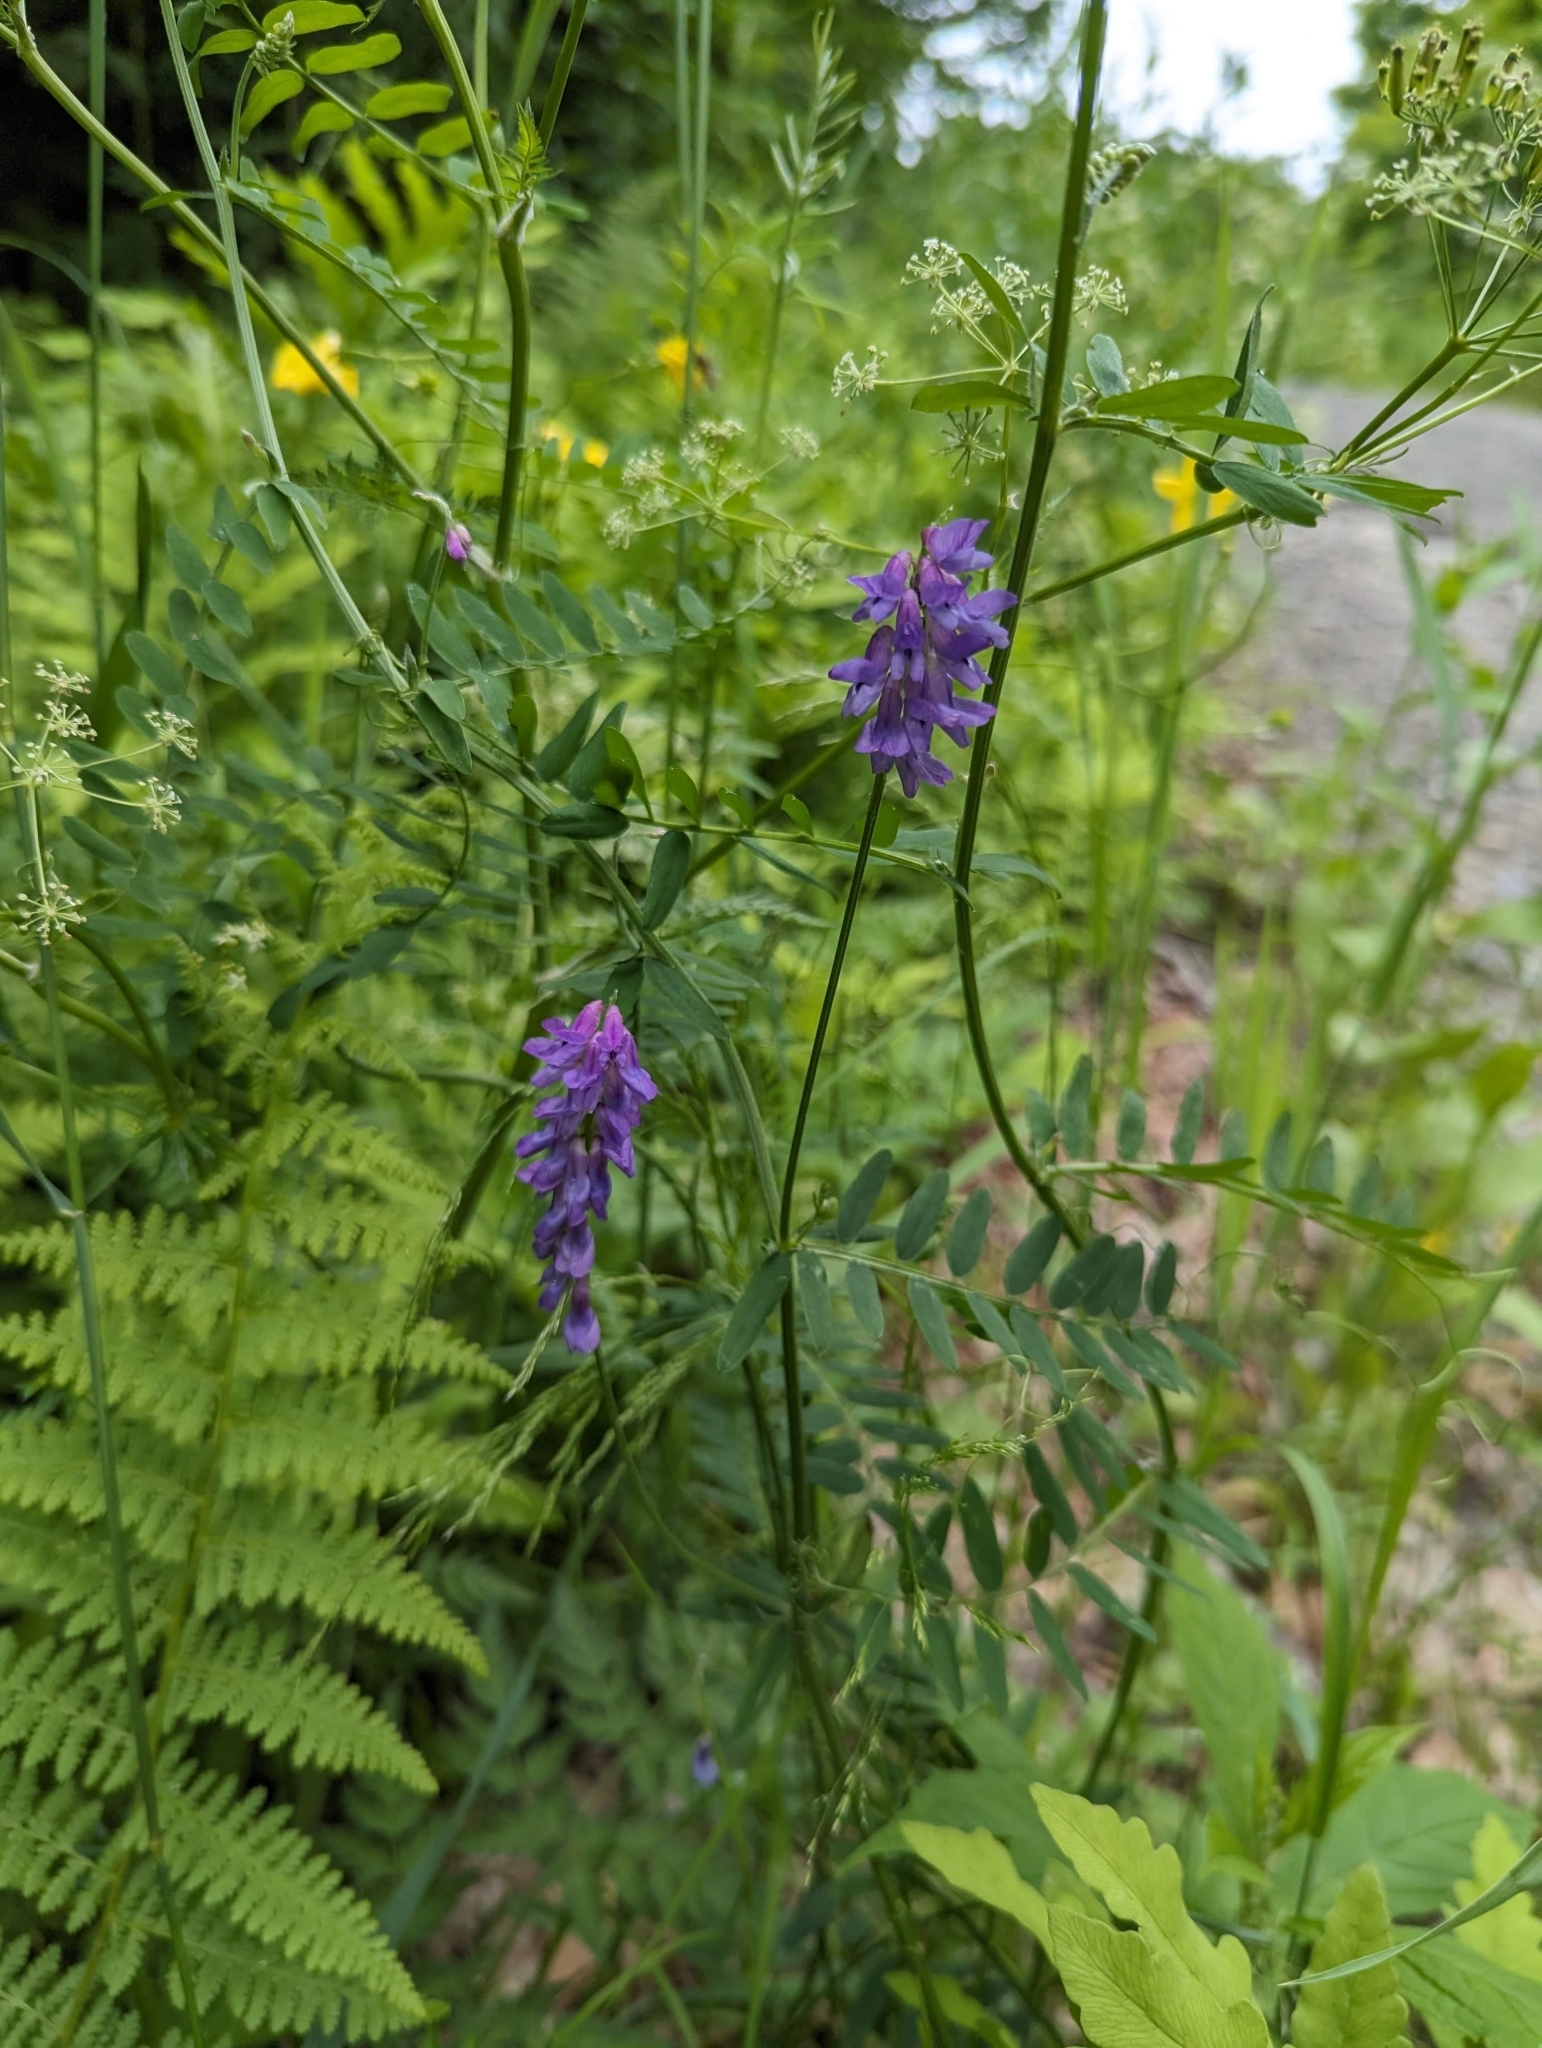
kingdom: Plantae
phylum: Tracheophyta
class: Magnoliopsida
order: Fabales
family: Fabaceae
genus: Vicia
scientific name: Vicia cracca
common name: Bird vetch
